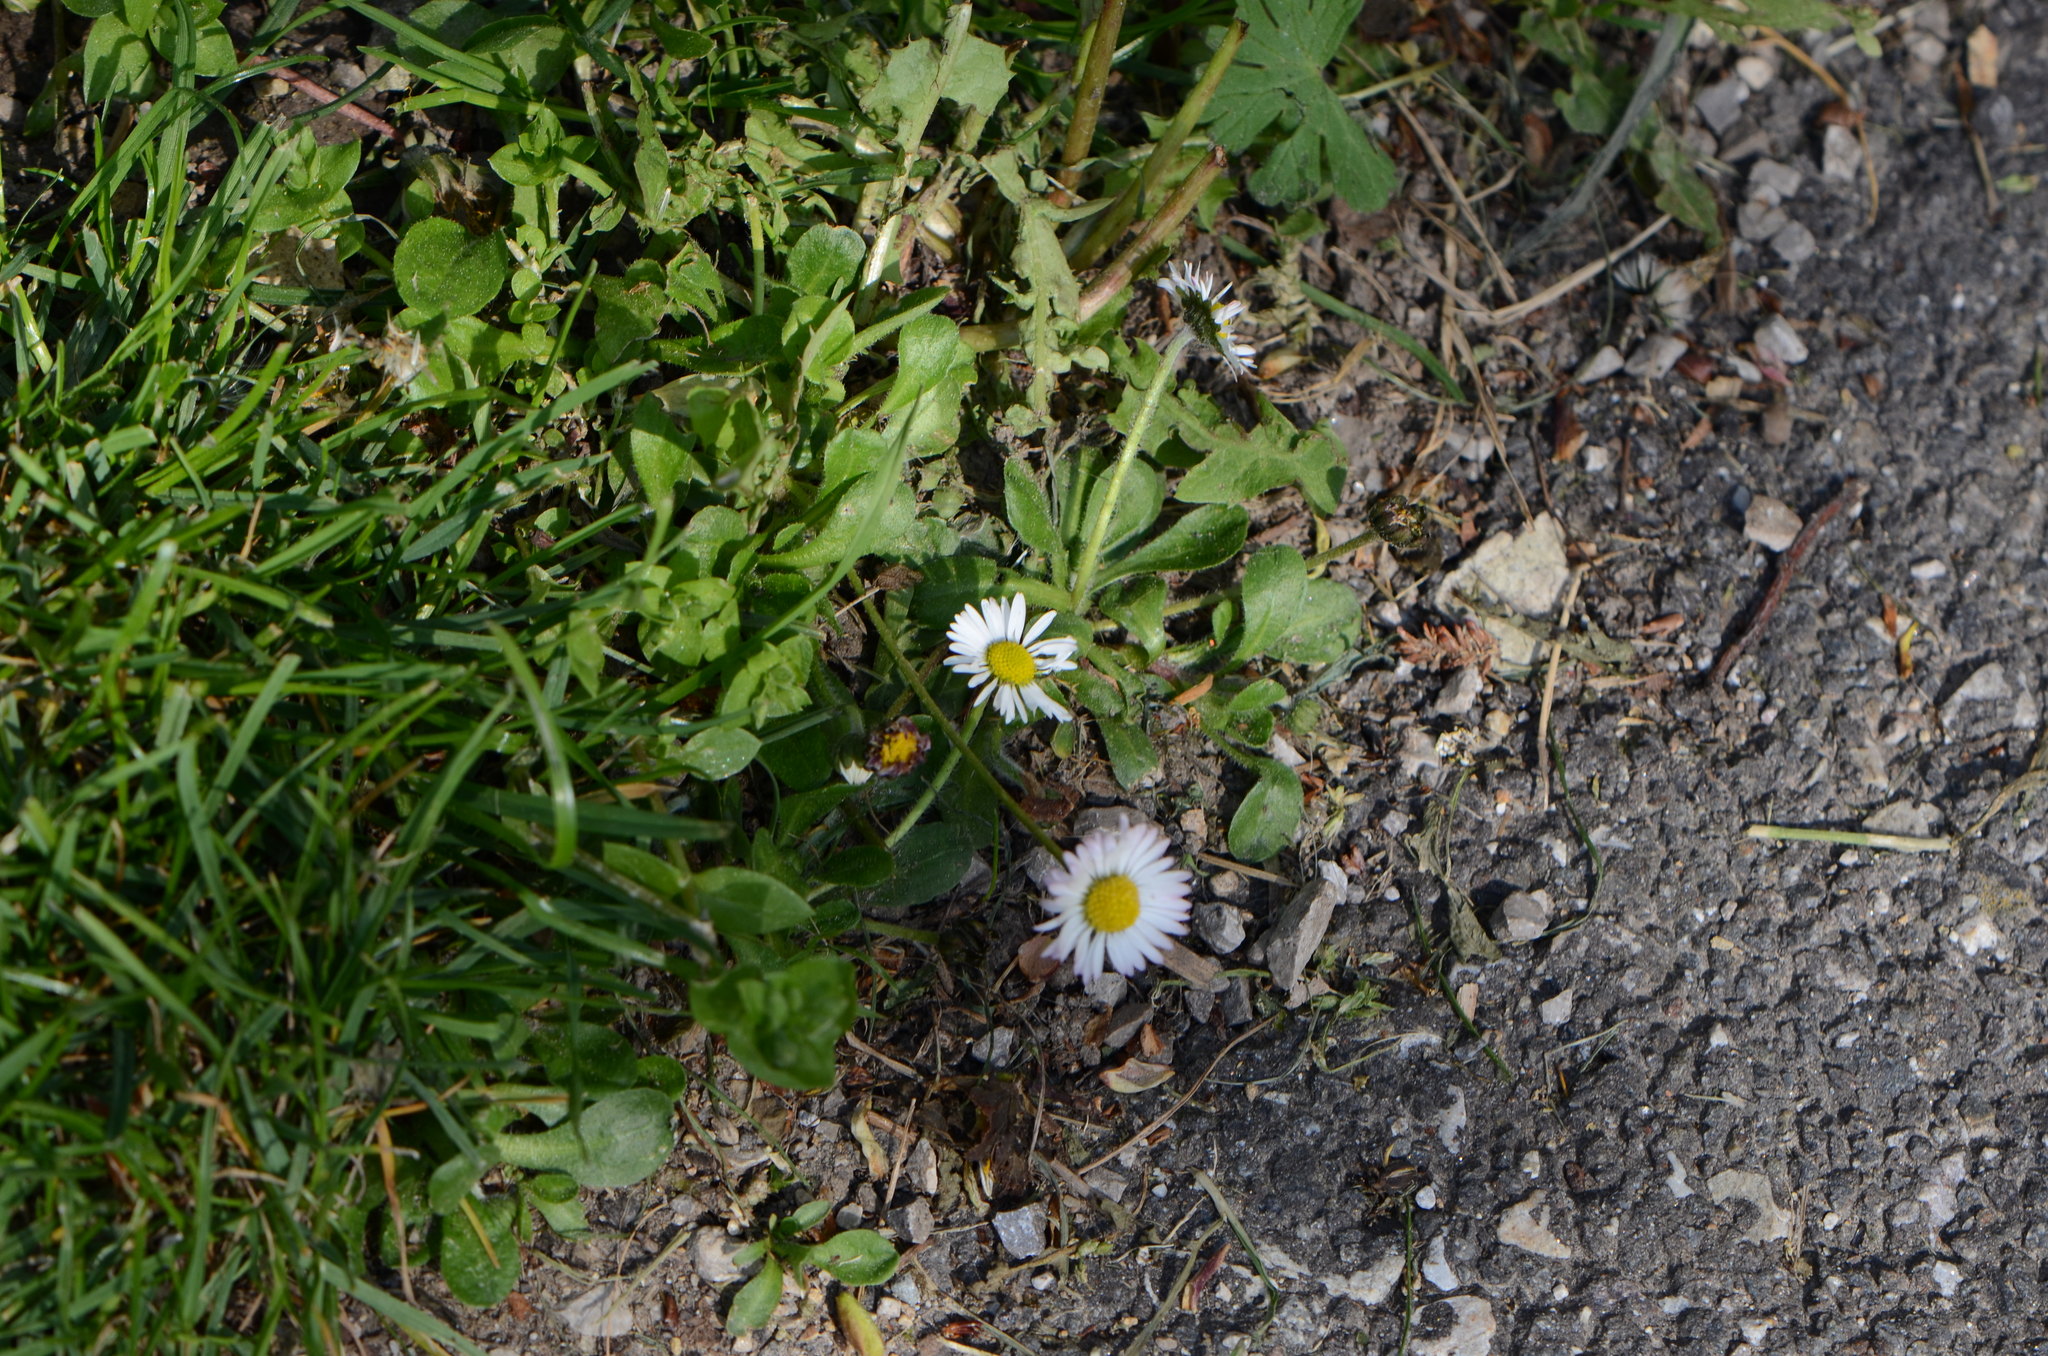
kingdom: Plantae
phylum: Tracheophyta
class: Magnoliopsida
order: Asterales
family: Asteraceae
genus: Bellis
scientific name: Bellis perennis
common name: Lawndaisy
